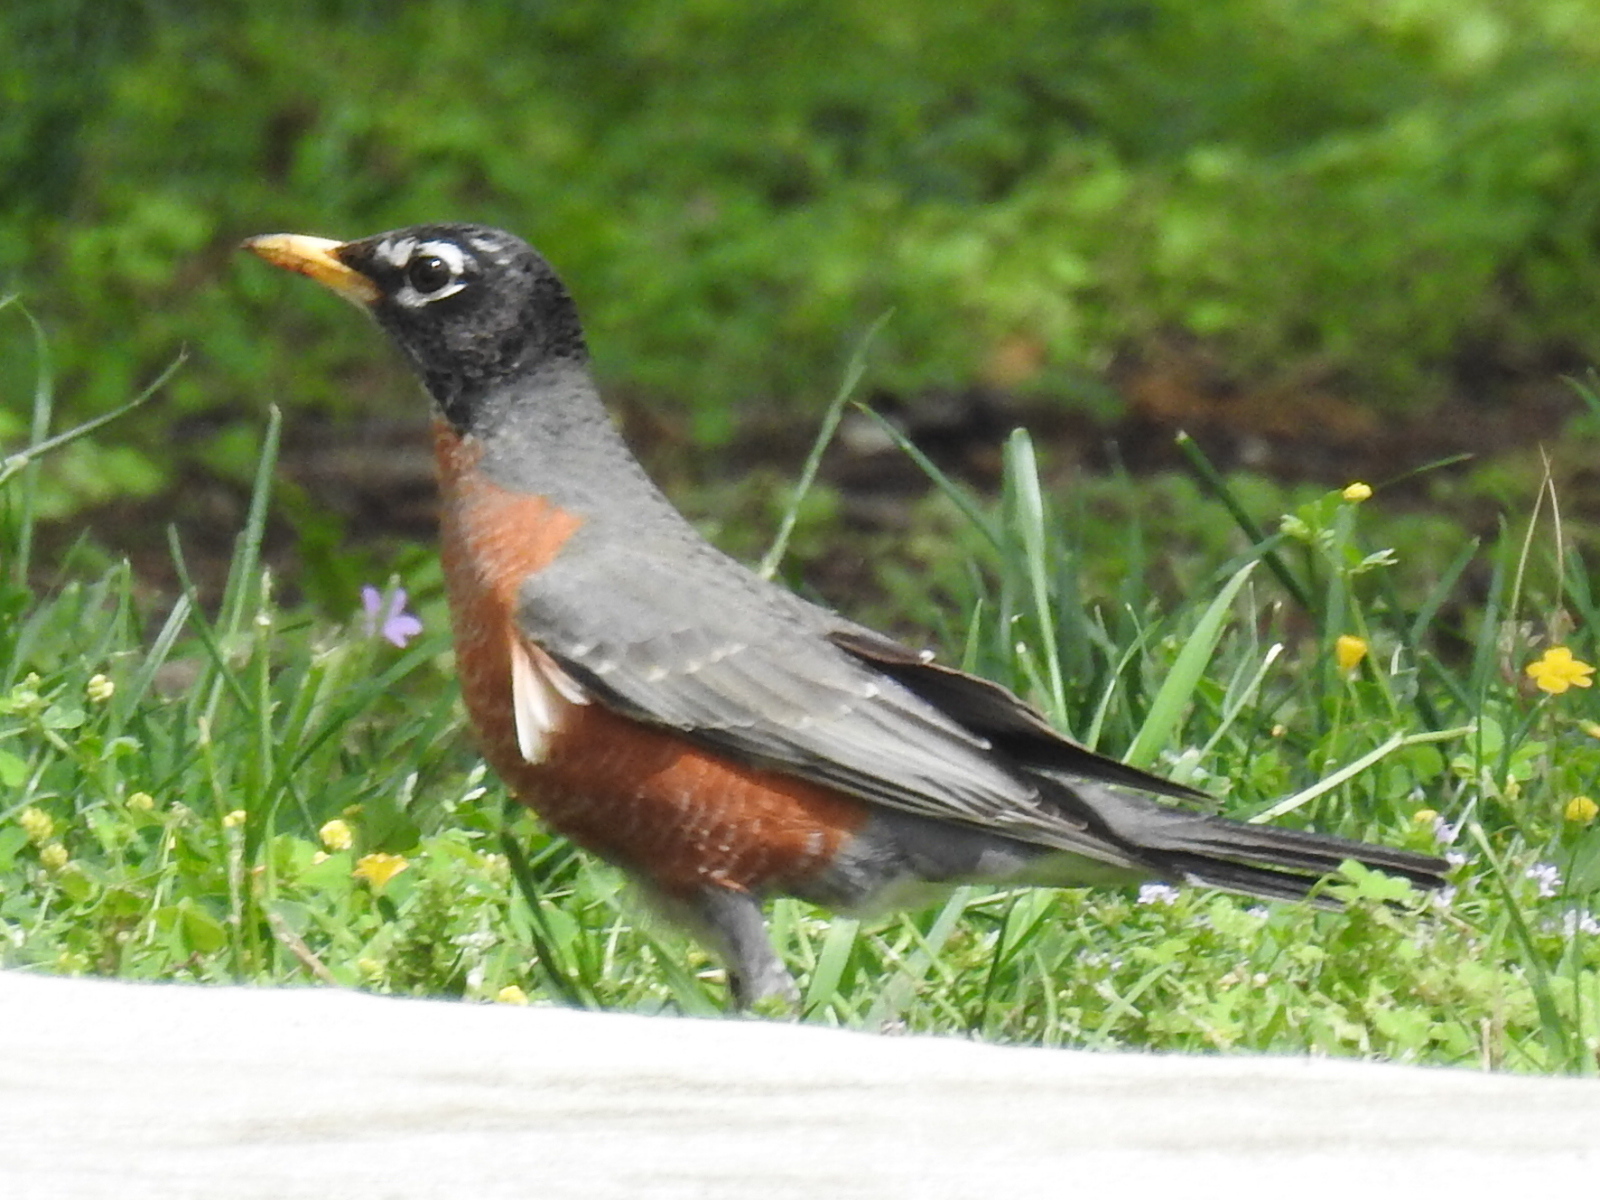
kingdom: Animalia
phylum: Chordata
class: Aves
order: Passeriformes
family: Turdidae
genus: Turdus
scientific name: Turdus migratorius
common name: American robin
